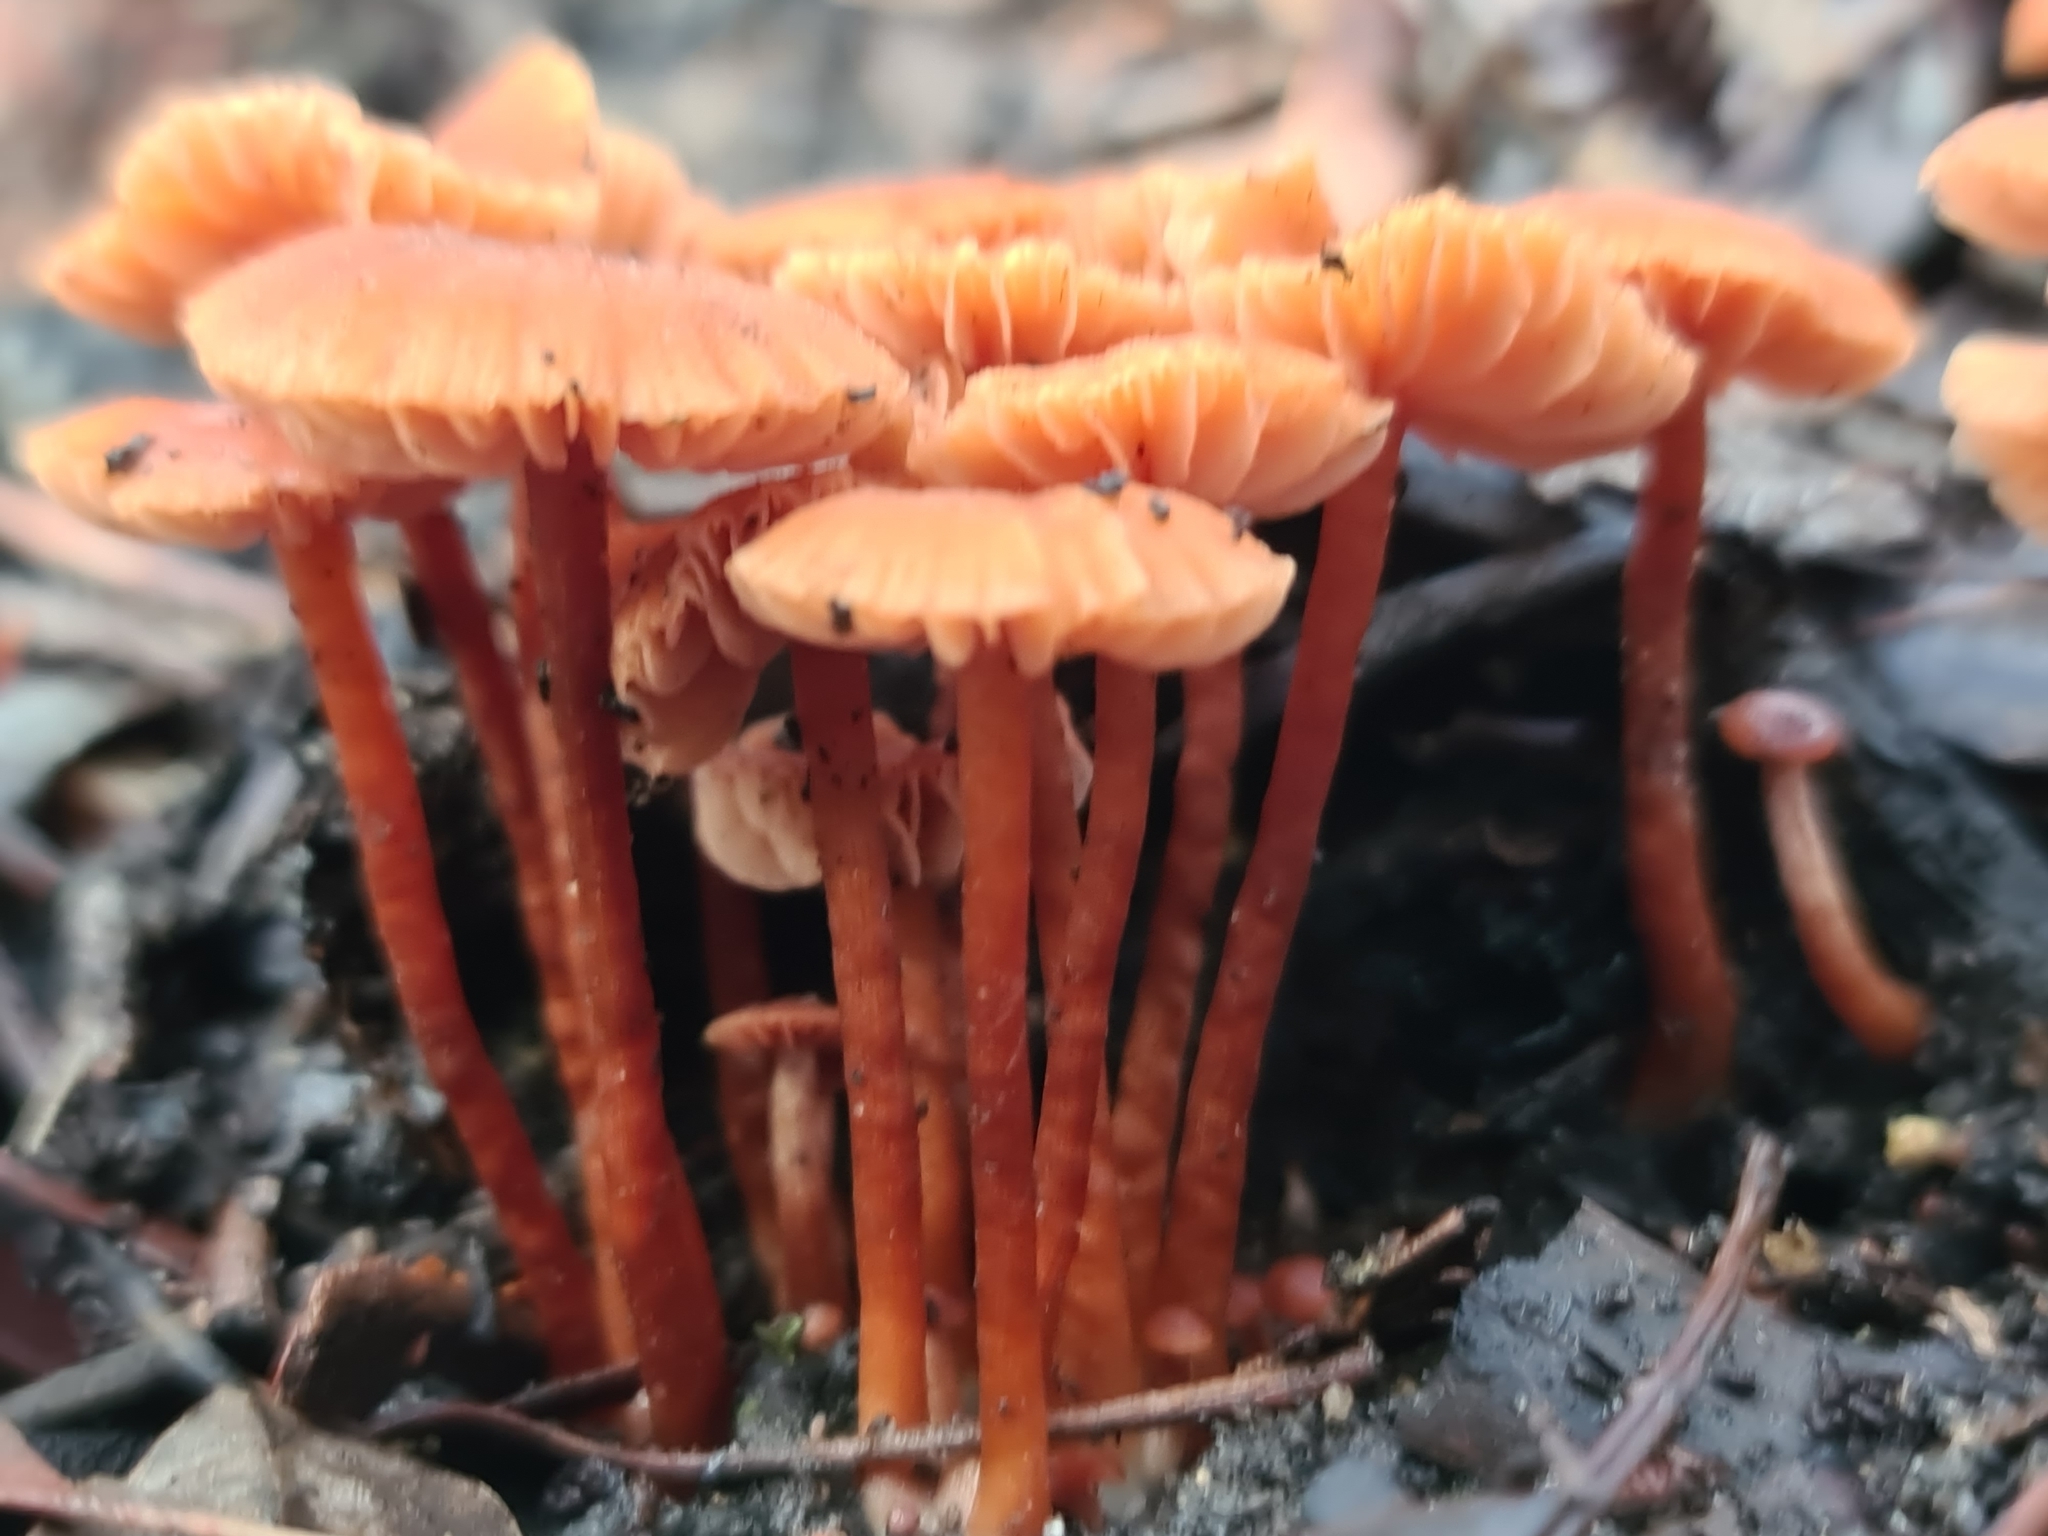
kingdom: Fungi
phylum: Basidiomycota
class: Agaricomycetes
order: Agaricales
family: Hydnangiaceae
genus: Laccaria
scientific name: Laccaria laccata
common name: Deceiver
